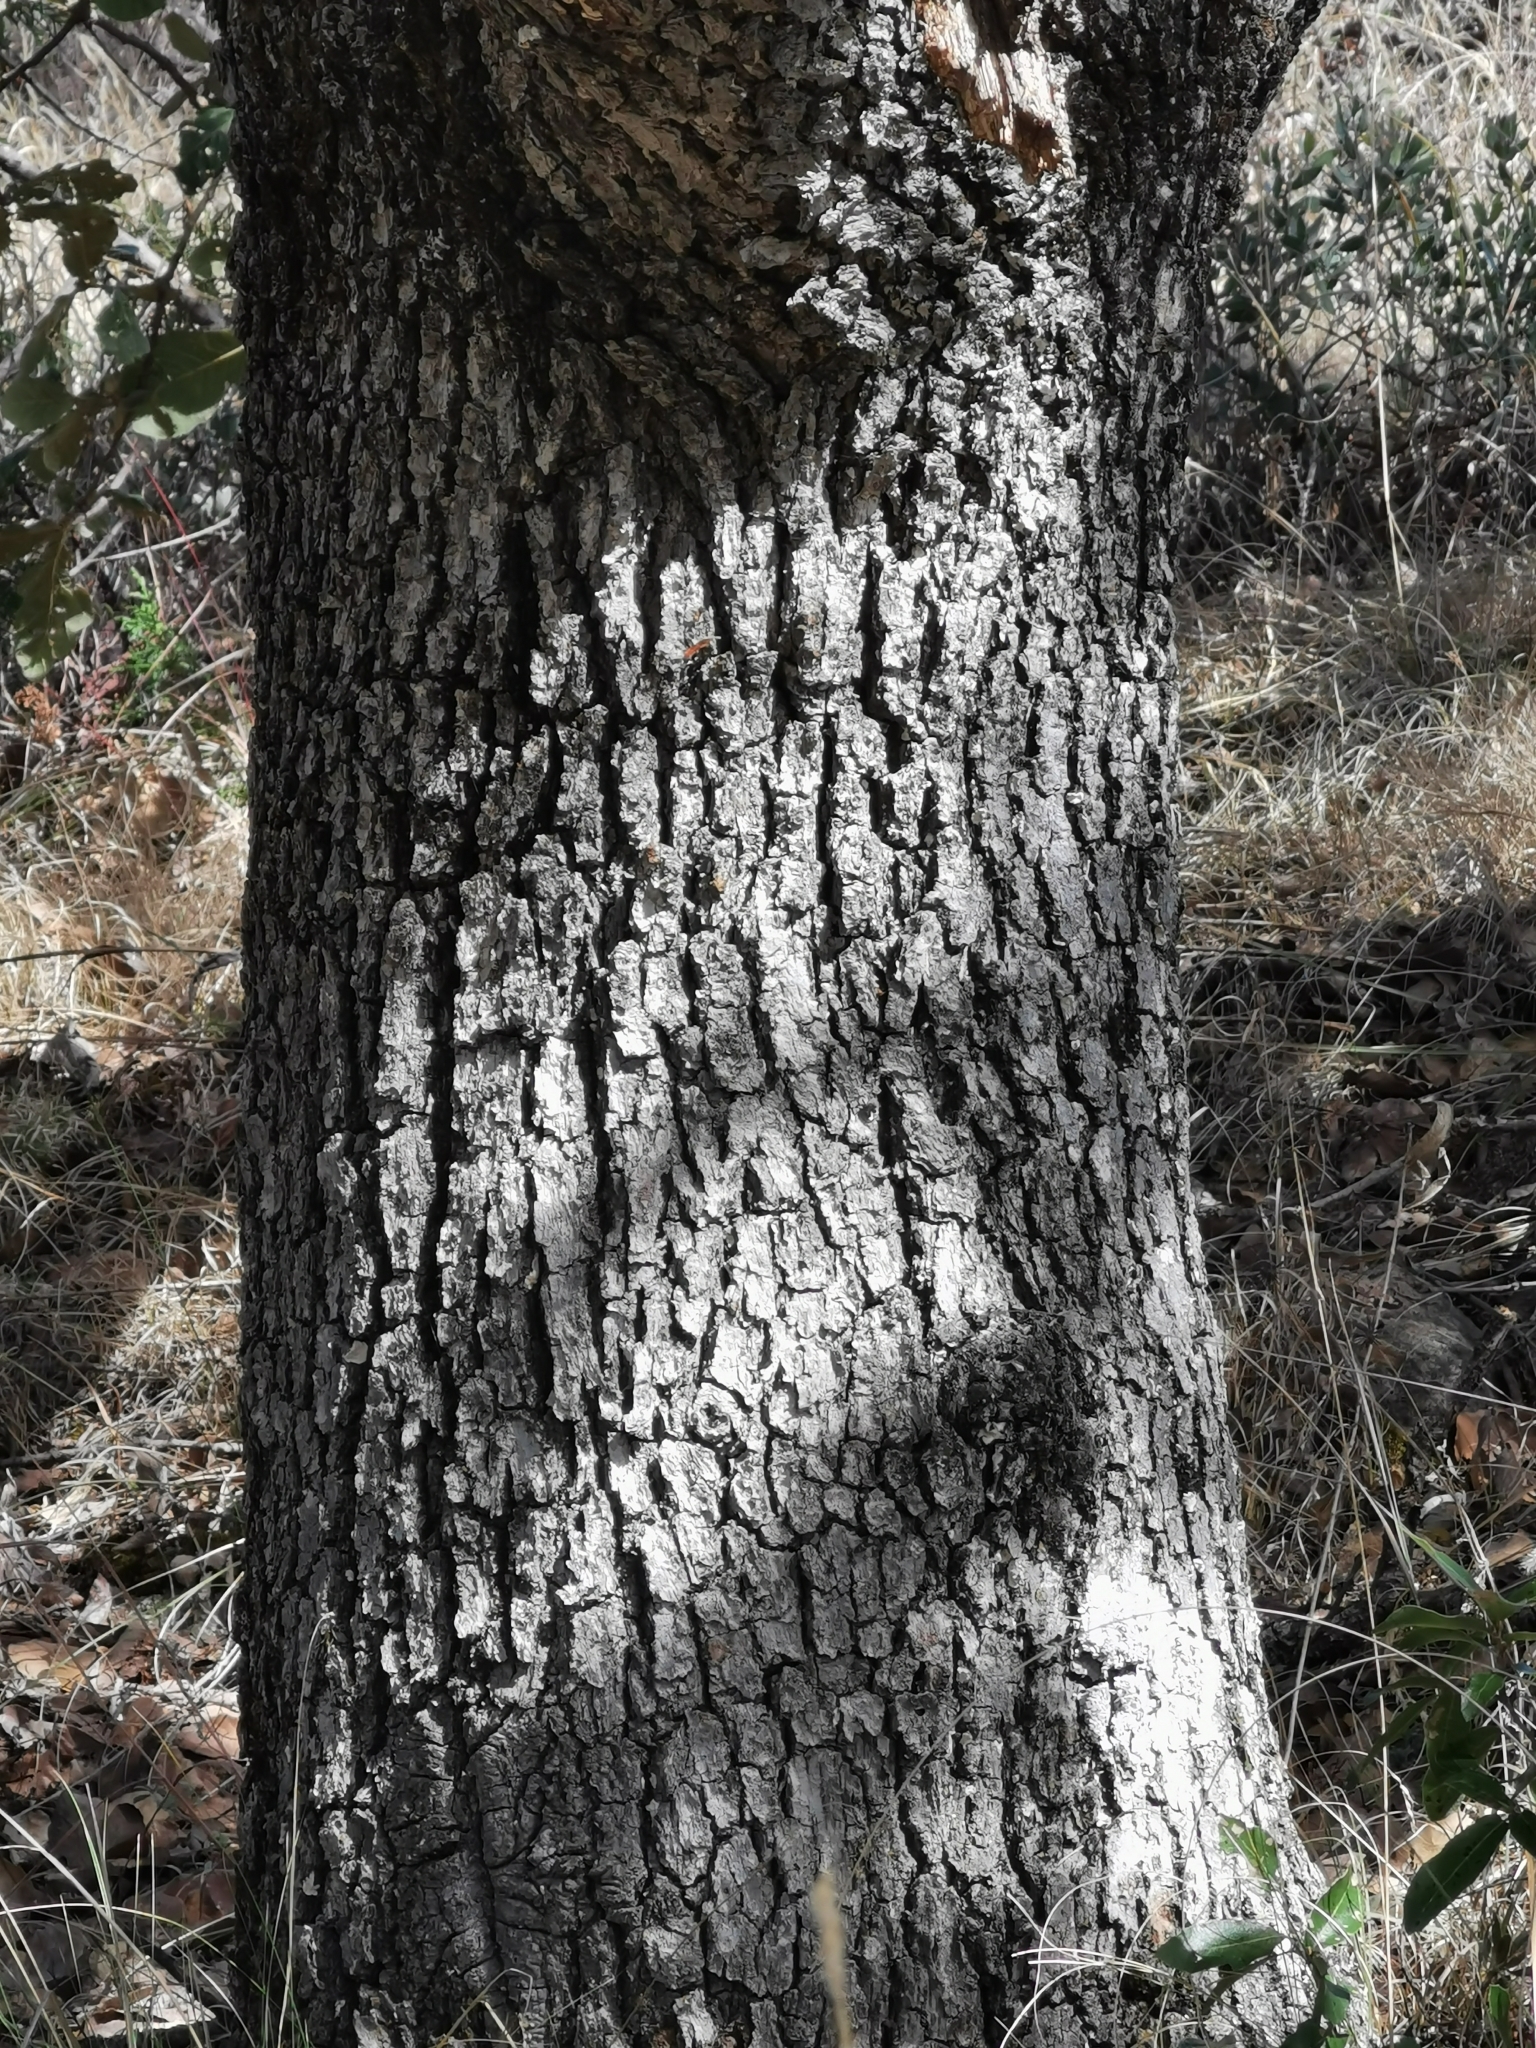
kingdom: Plantae
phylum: Tracheophyta
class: Magnoliopsida
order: Fagales
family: Fagaceae
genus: Quercus
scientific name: Quercus convallata
